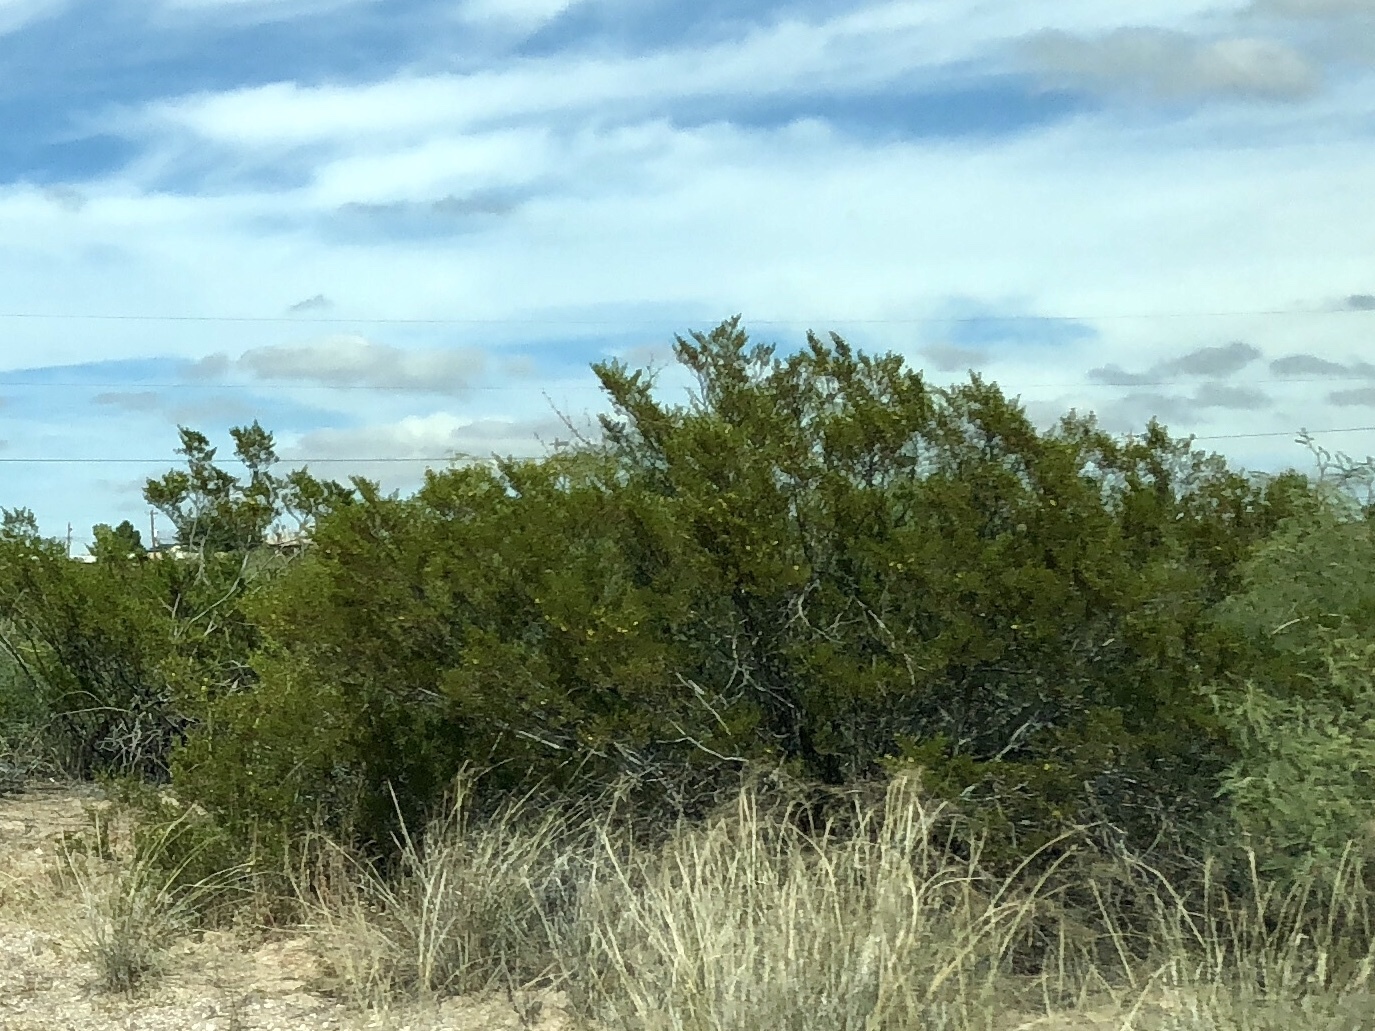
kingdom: Plantae
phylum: Tracheophyta
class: Magnoliopsida
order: Zygophyllales
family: Zygophyllaceae
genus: Larrea
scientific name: Larrea tridentata
